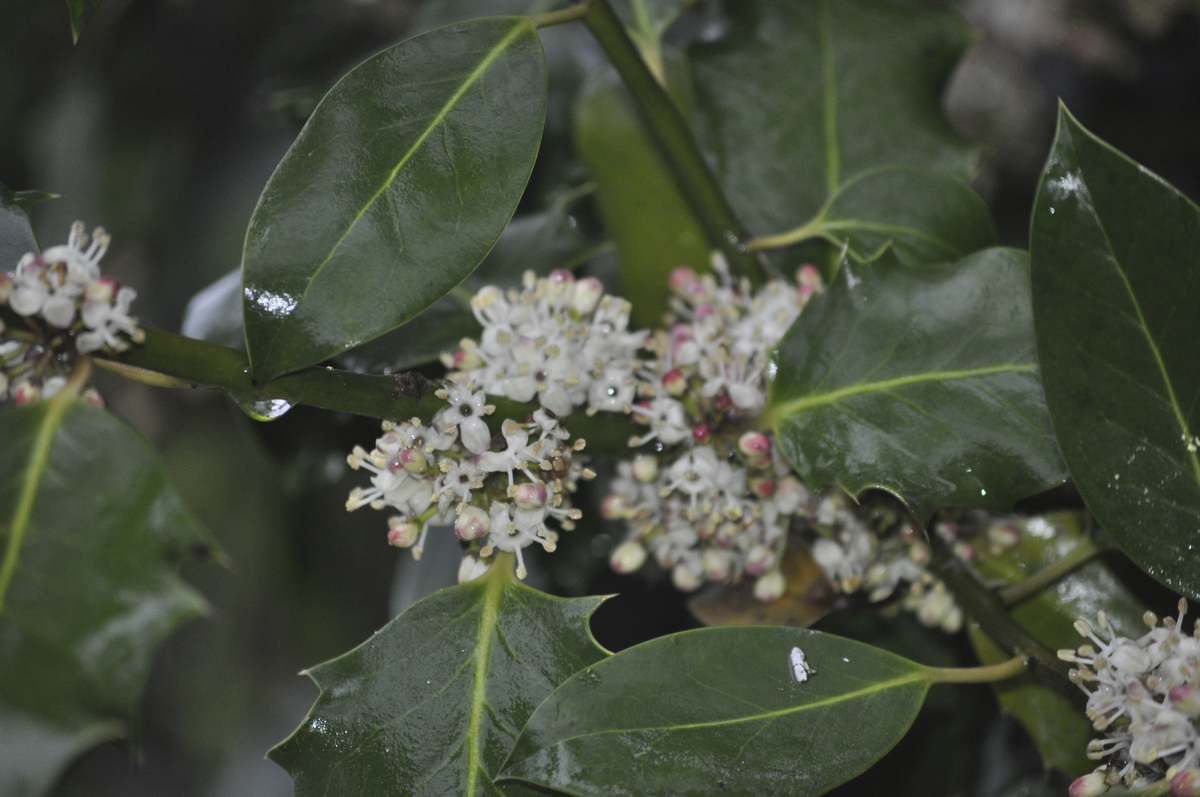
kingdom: Plantae
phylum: Tracheophyta
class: Magnoliopsida
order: Aquifoliales
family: Aquifoliaceae
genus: Ilex
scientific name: Ilex aquifolium
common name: English holly
